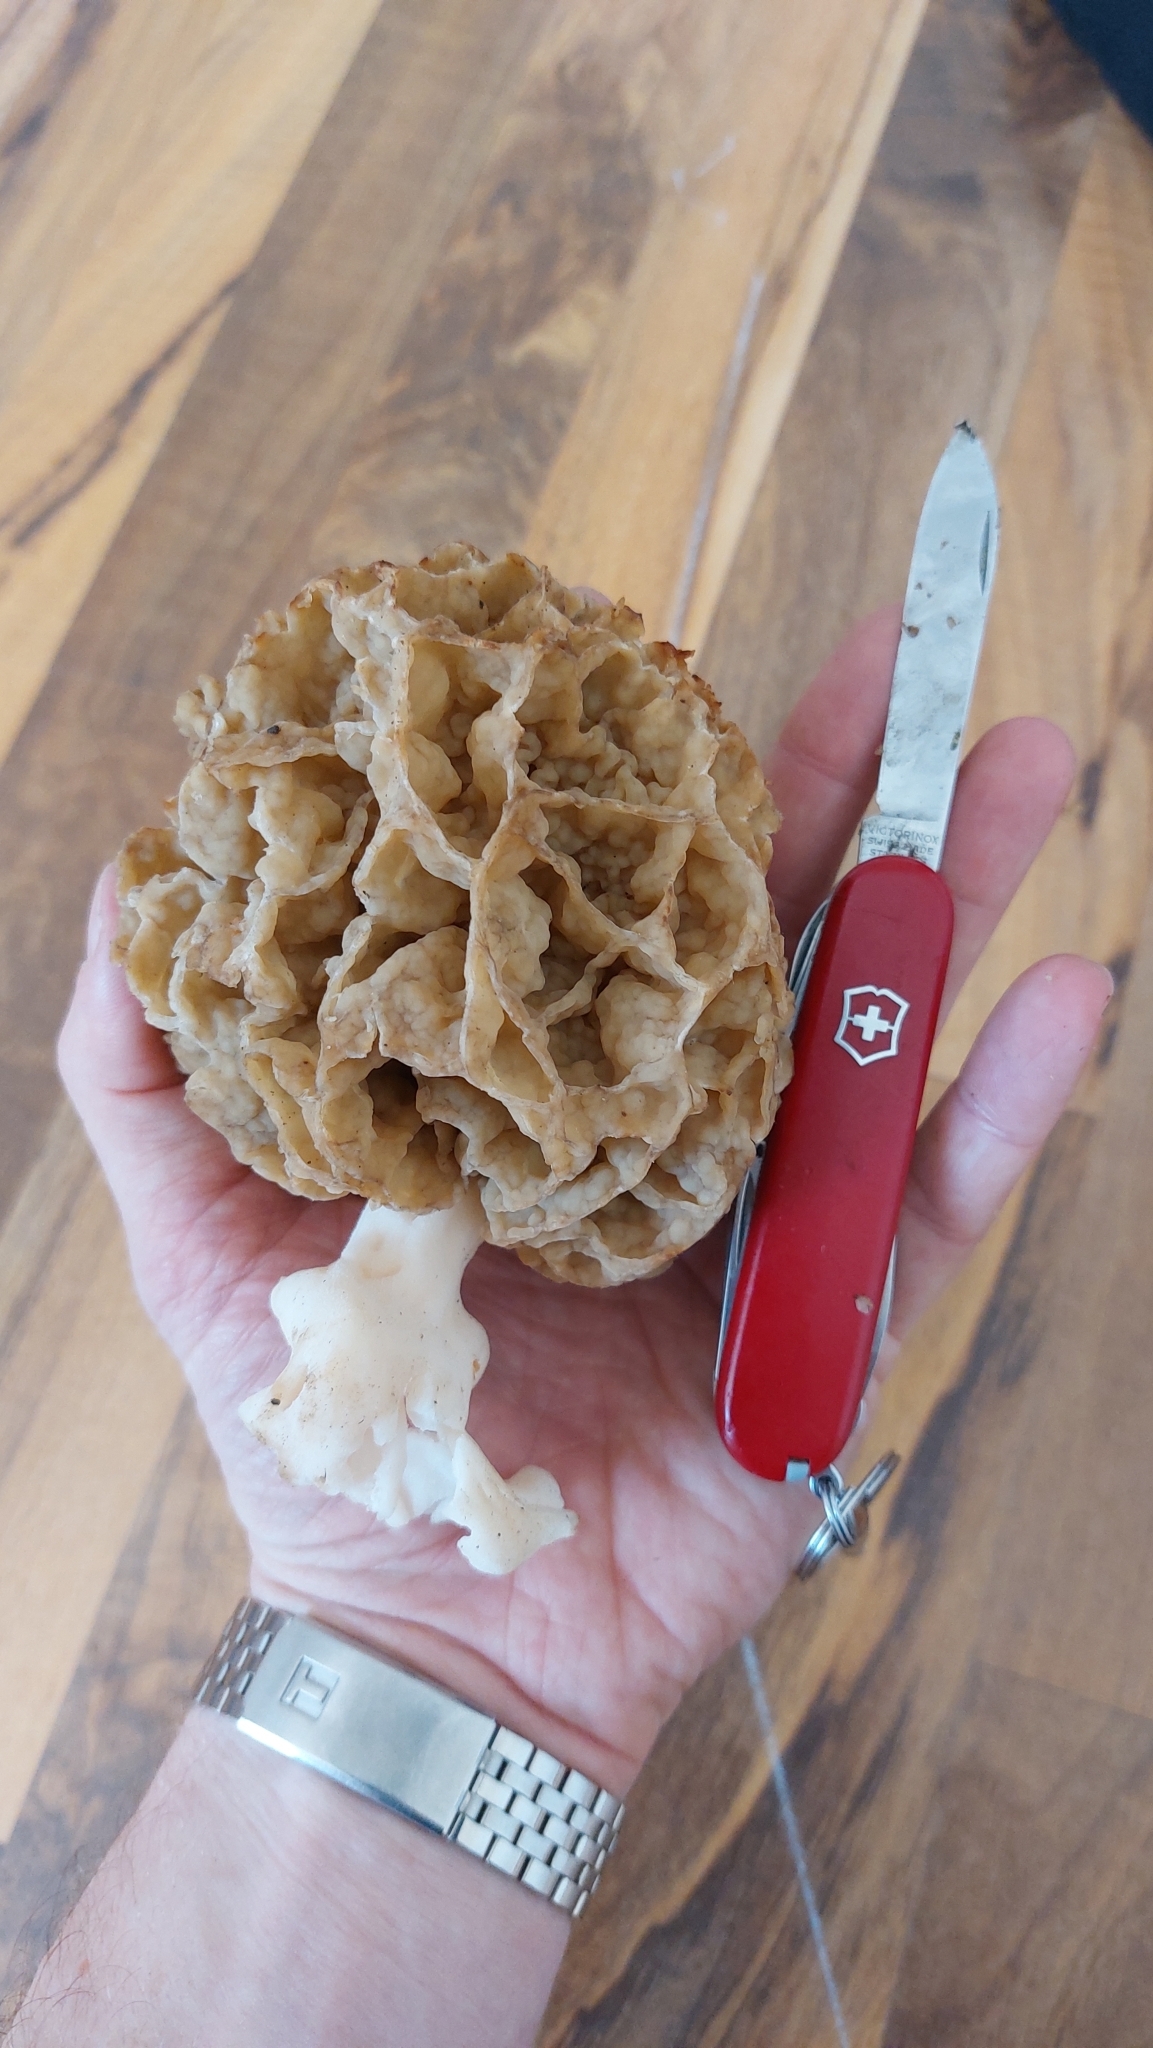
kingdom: Fungi
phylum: Ascomycota
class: Pezizomycetes
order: Pezizales
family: Morchellaceae
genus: Morchella
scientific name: Morchella esculenta
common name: Morel
